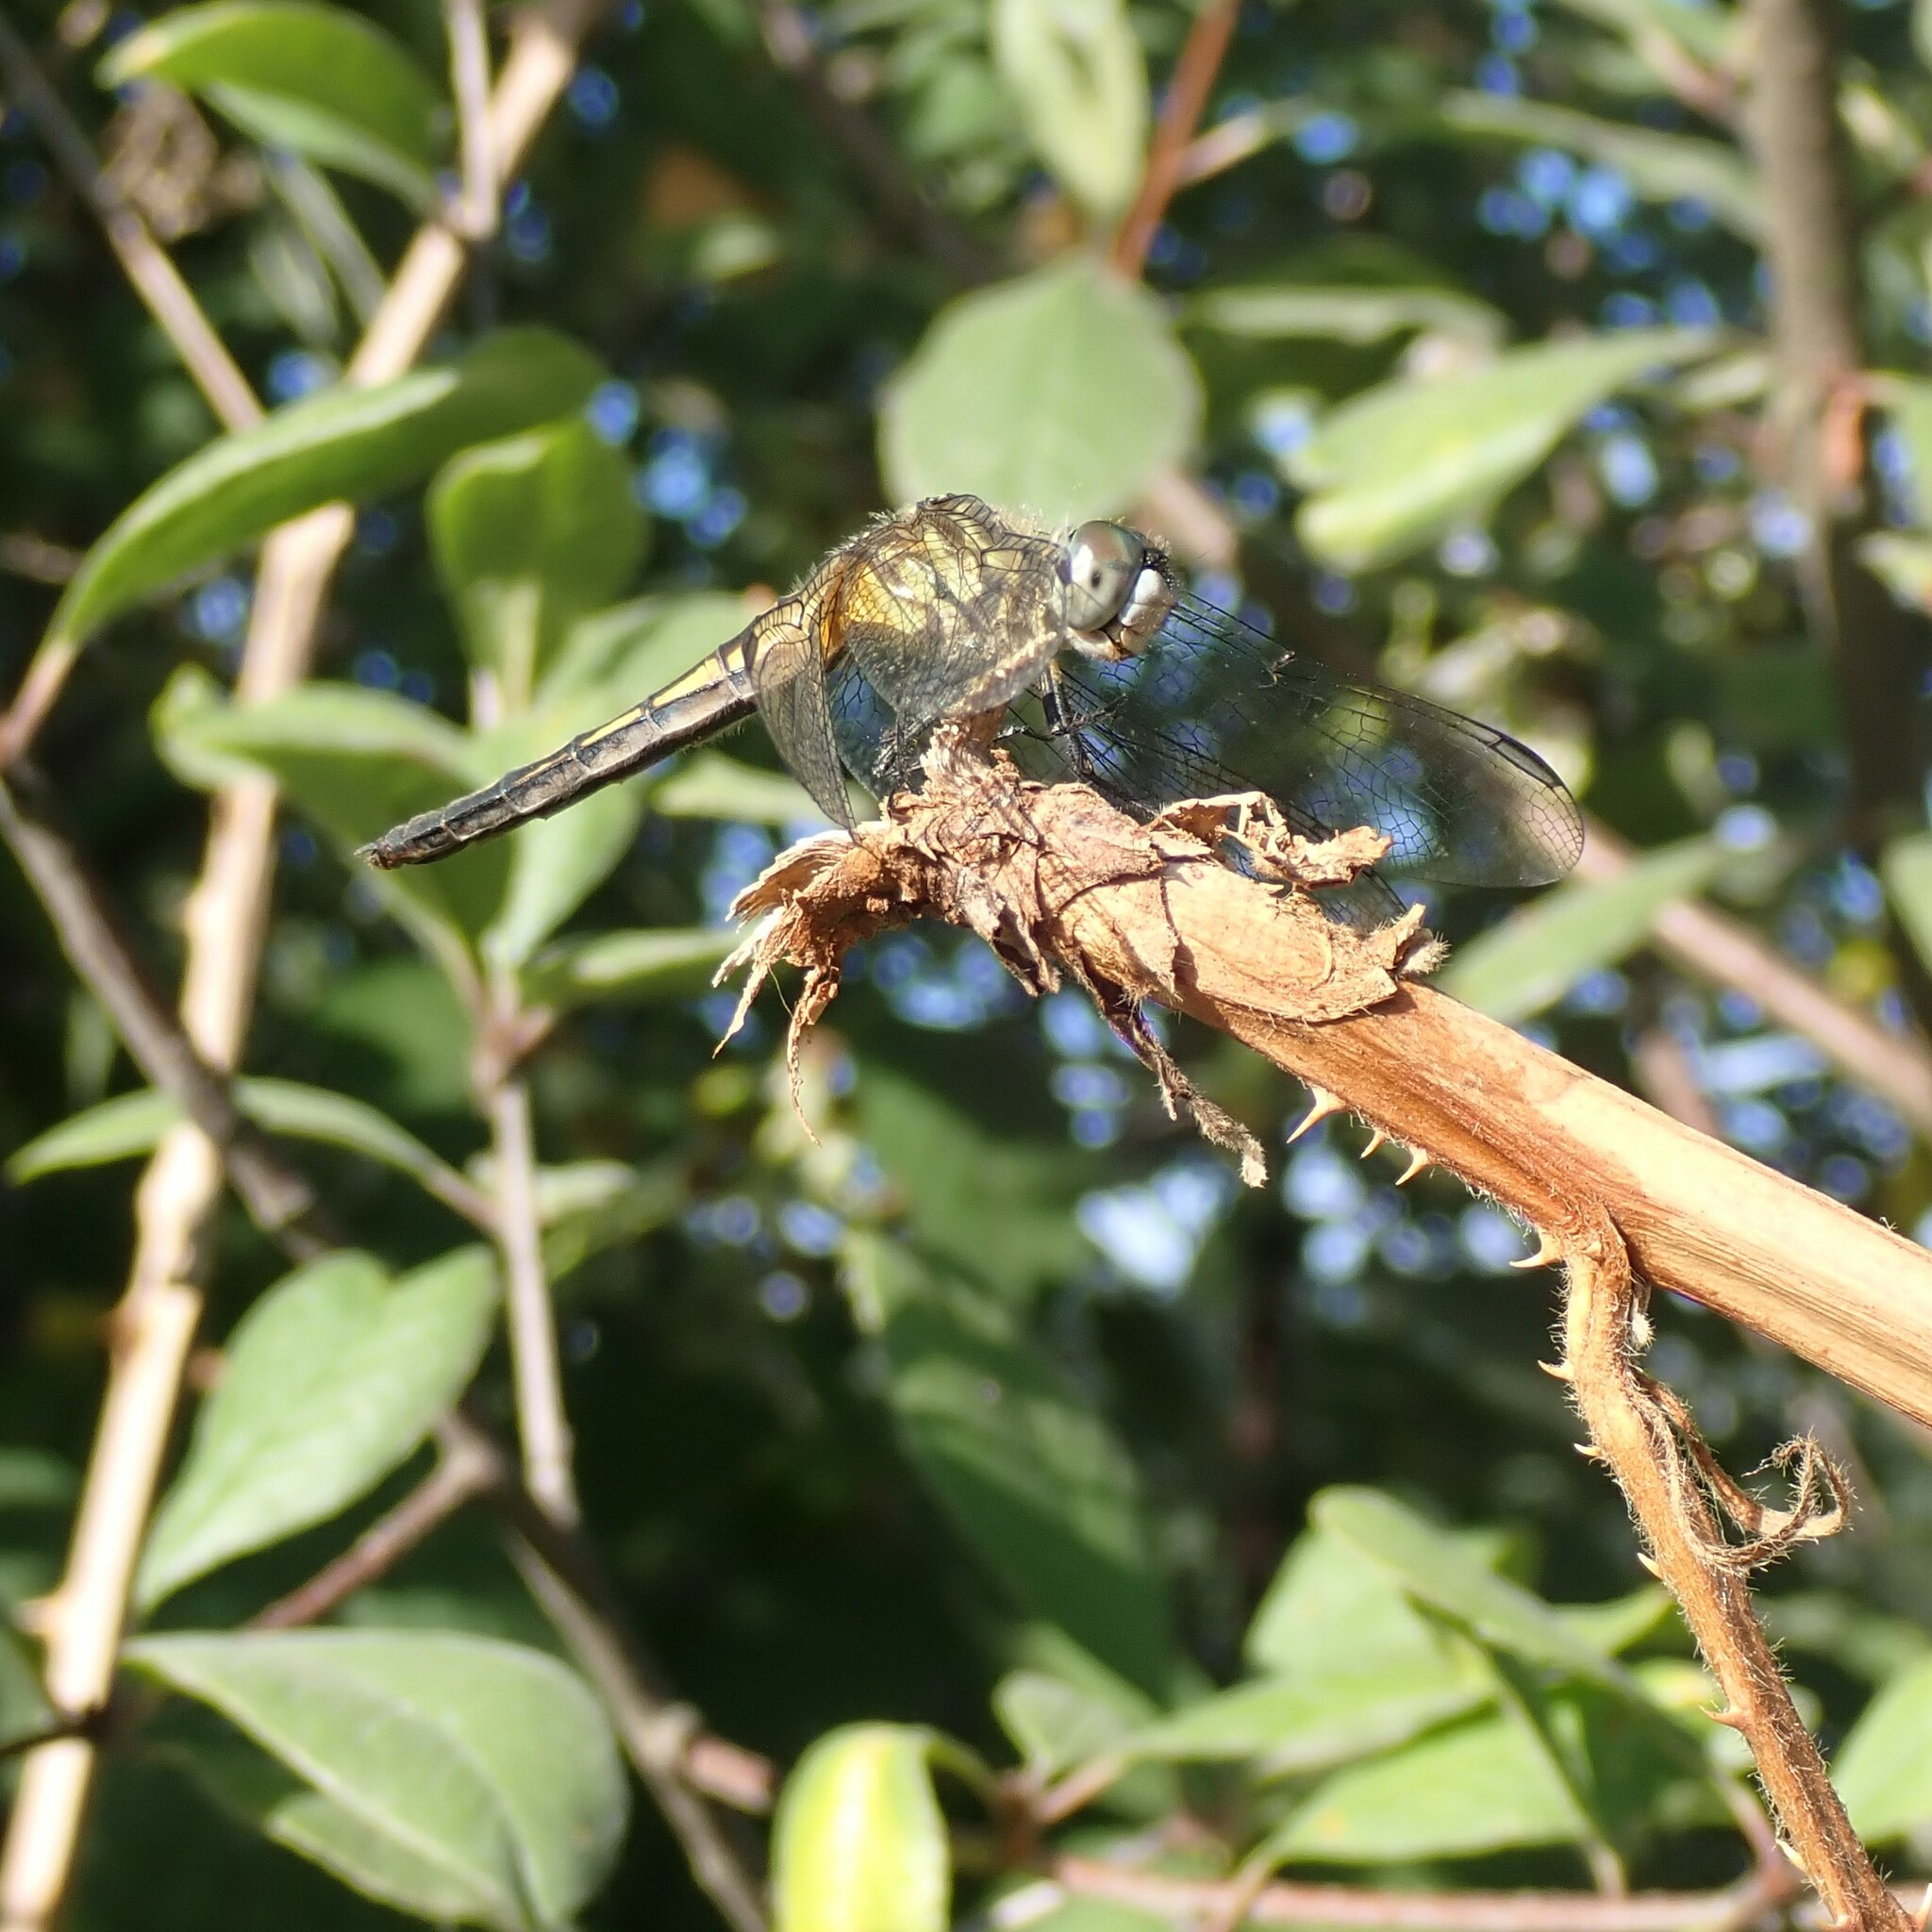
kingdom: Animalia
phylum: Arthropoda
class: Insecta
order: Odonata
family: Libellulidae
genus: Pachydiplax
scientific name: Pachydiplax longipennis
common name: Blue dasher
